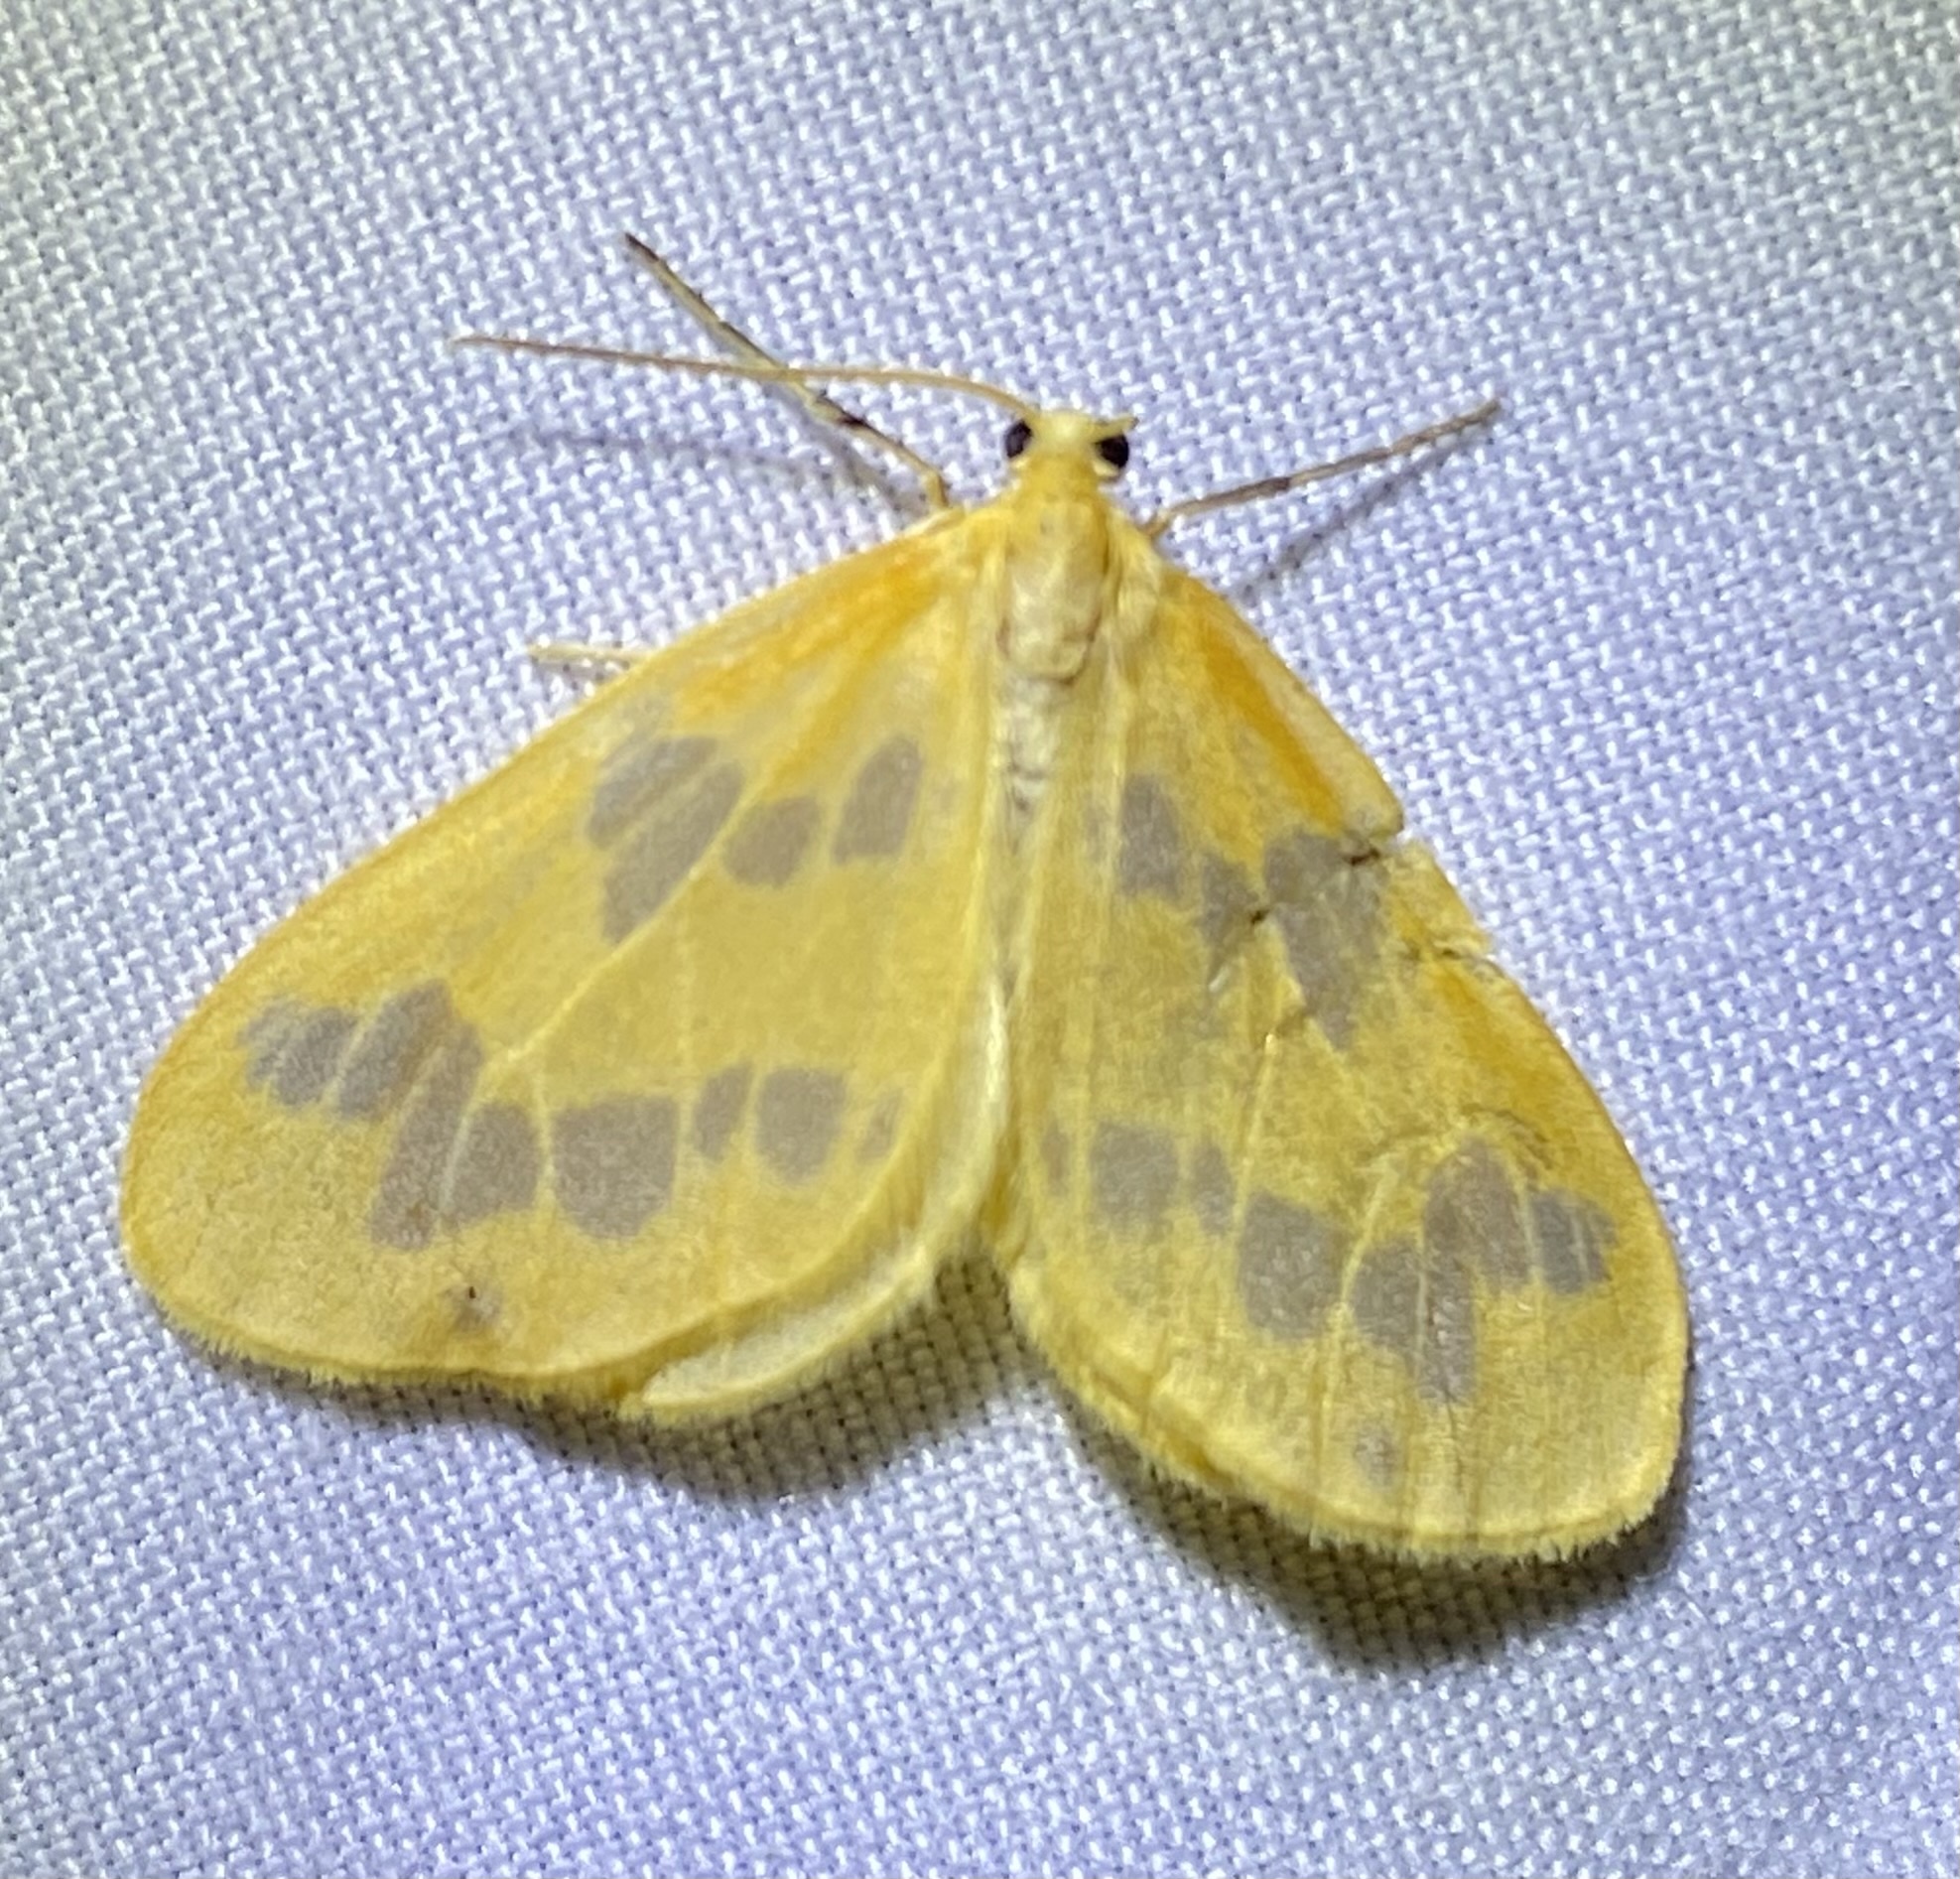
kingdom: Animalia
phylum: Arthropoda
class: Insecta
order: Lepidoptera
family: Geometridae
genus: Eubaphe
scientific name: Eubaphe mendica
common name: Beggar
